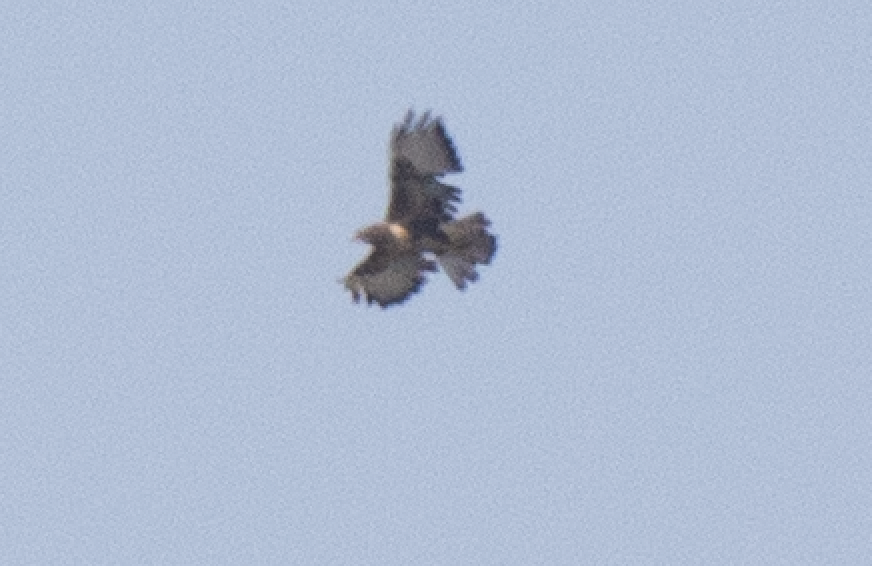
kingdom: Animalia
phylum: Chordata
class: Aves
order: Accipitriformes
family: Accipitridae
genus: Buteo
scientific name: Buteo buteo
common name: Common buzzard
